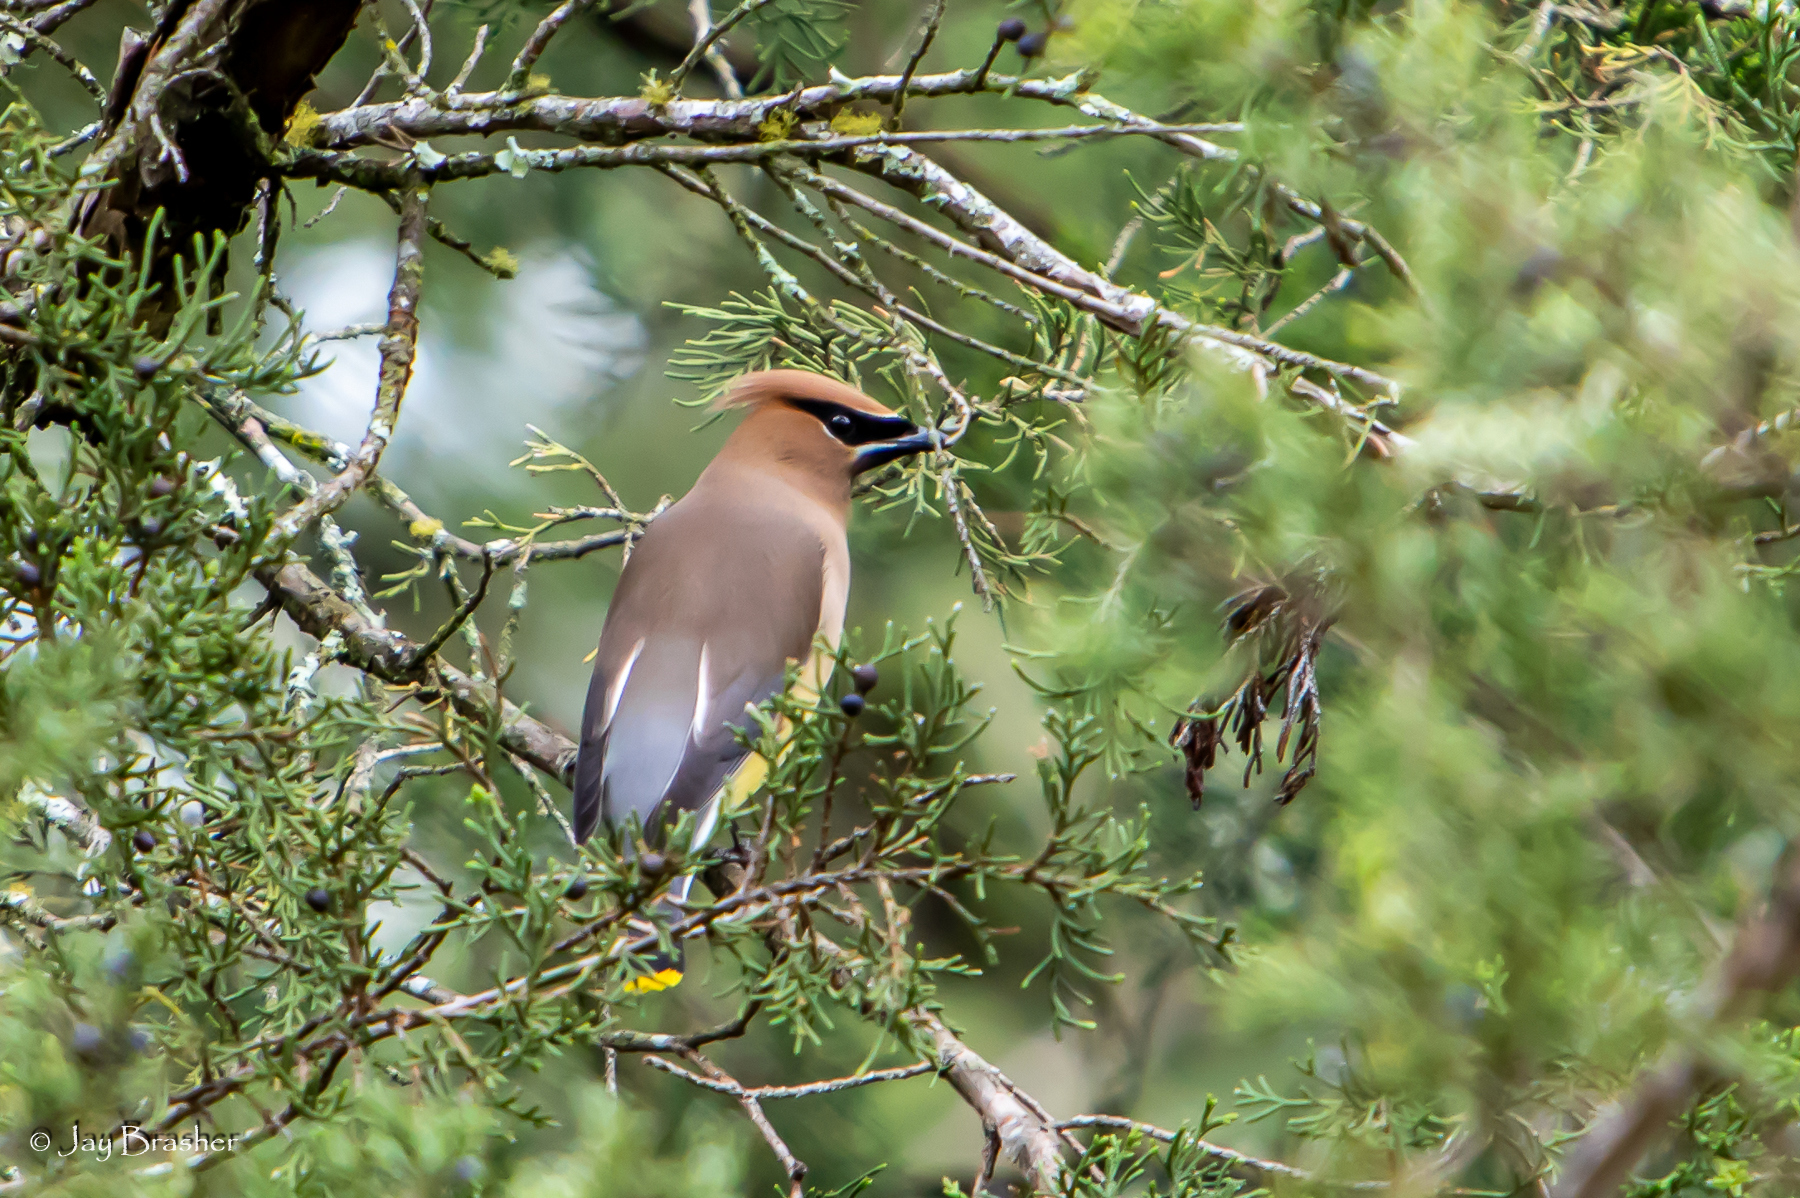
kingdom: Animalia
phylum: Chordata
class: Aves
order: Passeriformes
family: Bombycillidae
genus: Bombycilla
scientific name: Bombycilla cedrorum
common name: Cedar waxwing
